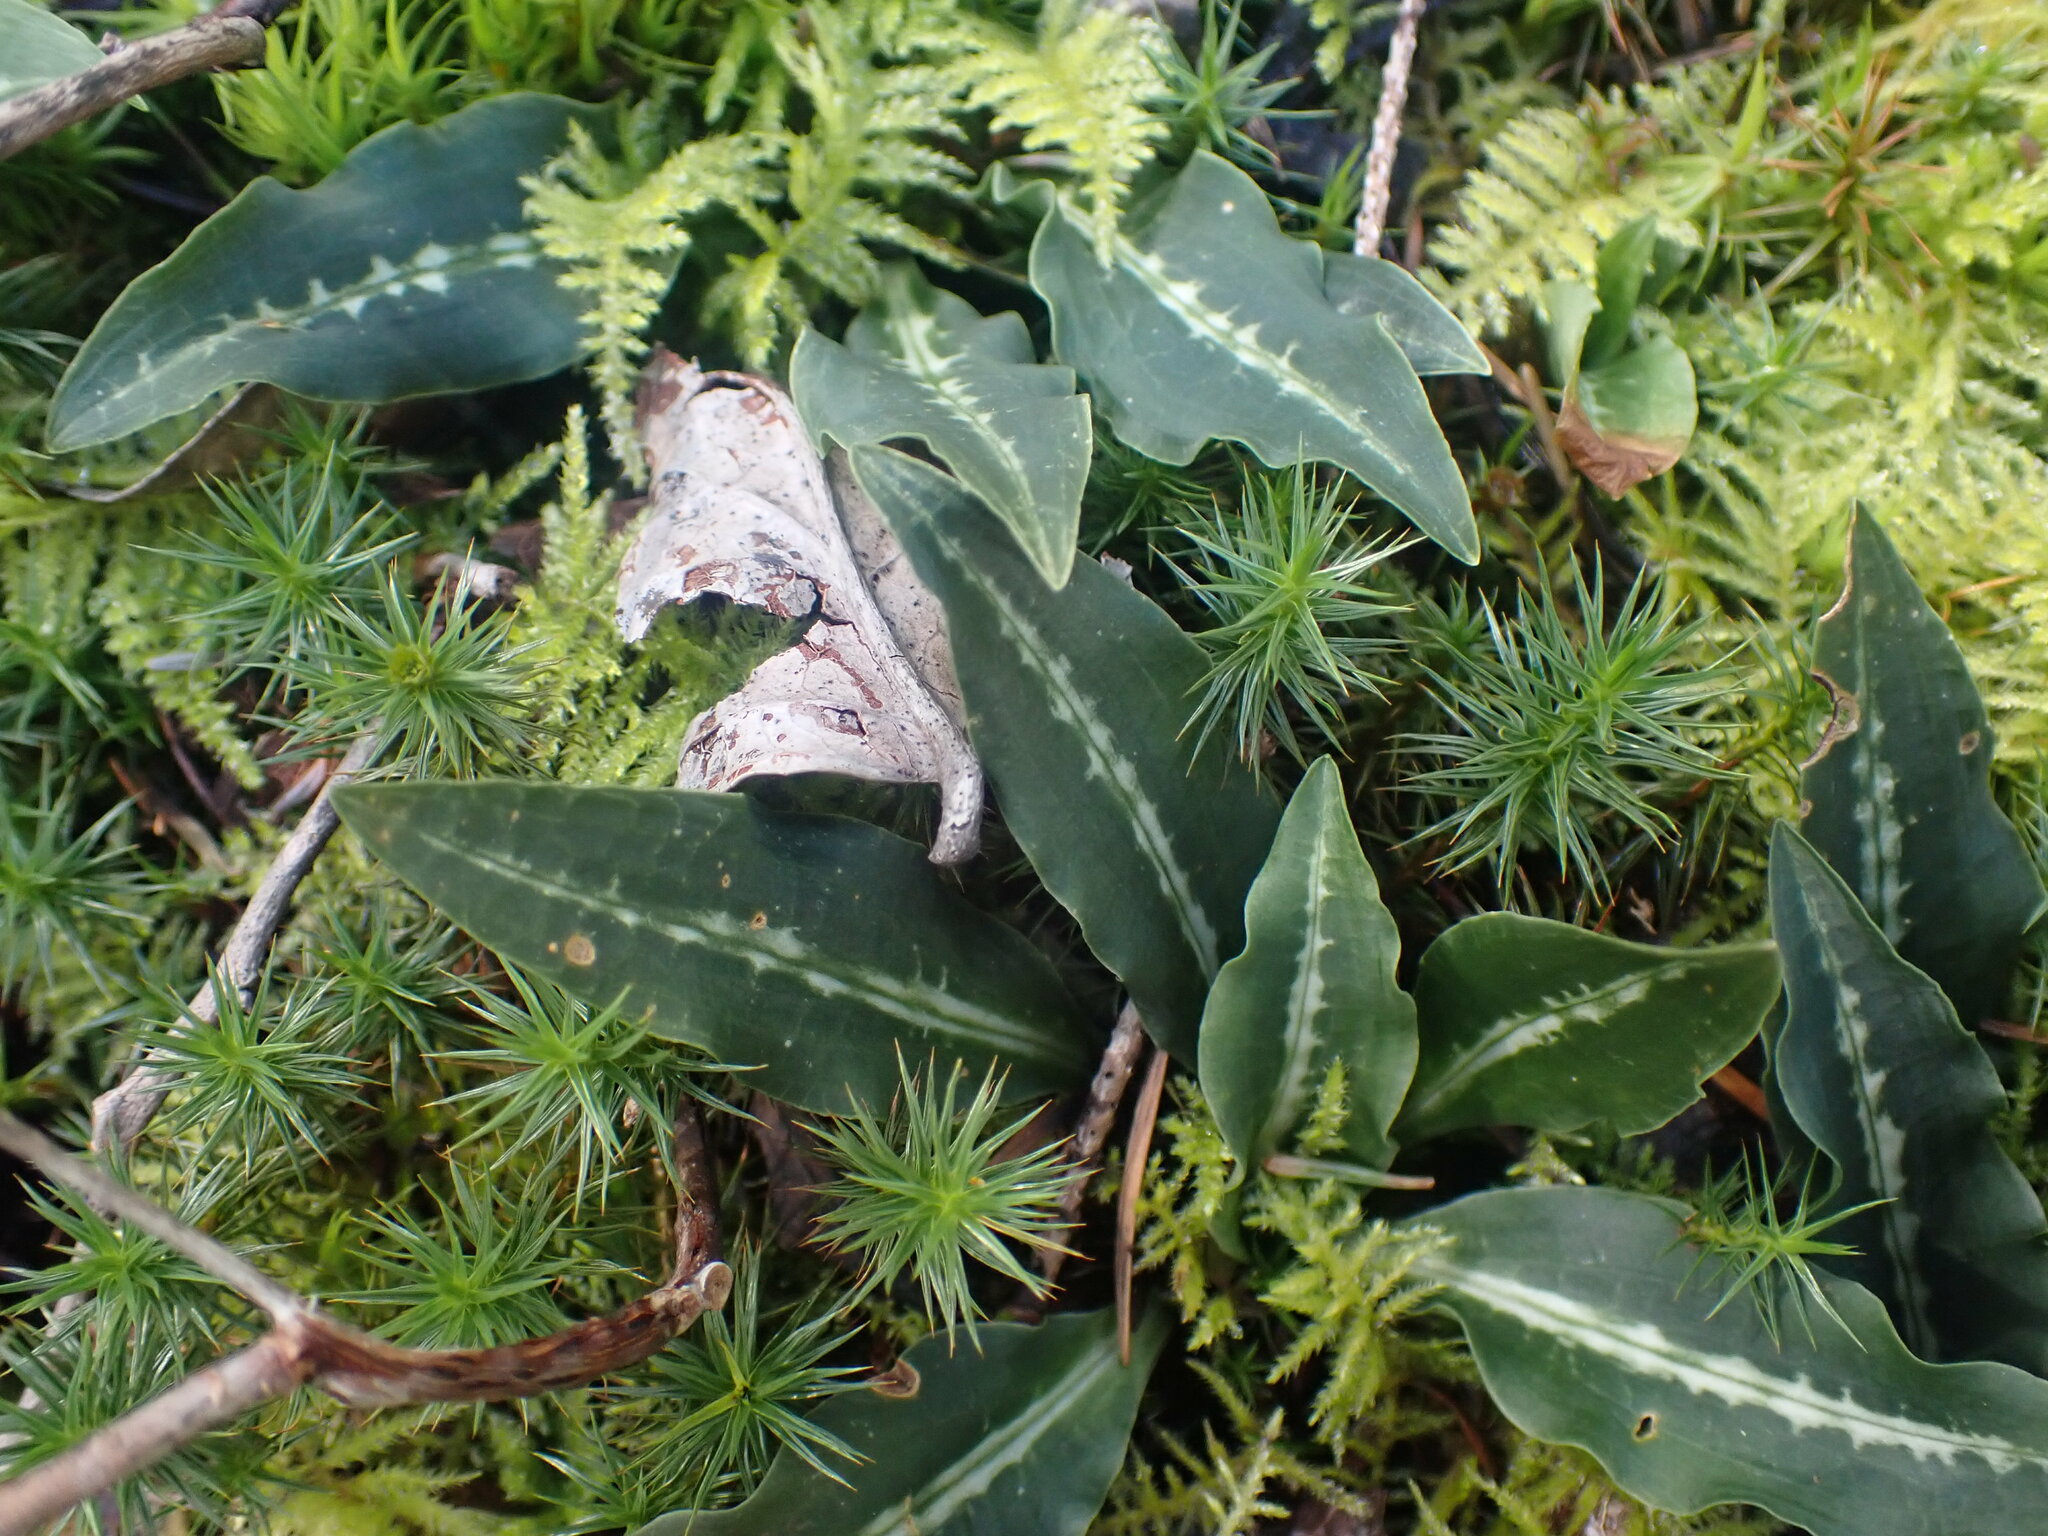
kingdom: Plantae
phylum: Tracheophyta
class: Liliopsida
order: Asparagales
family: Orchidaceae
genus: Goodyera
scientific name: Goodyera oblongifolia
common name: Giant rattlesnake-plantain
